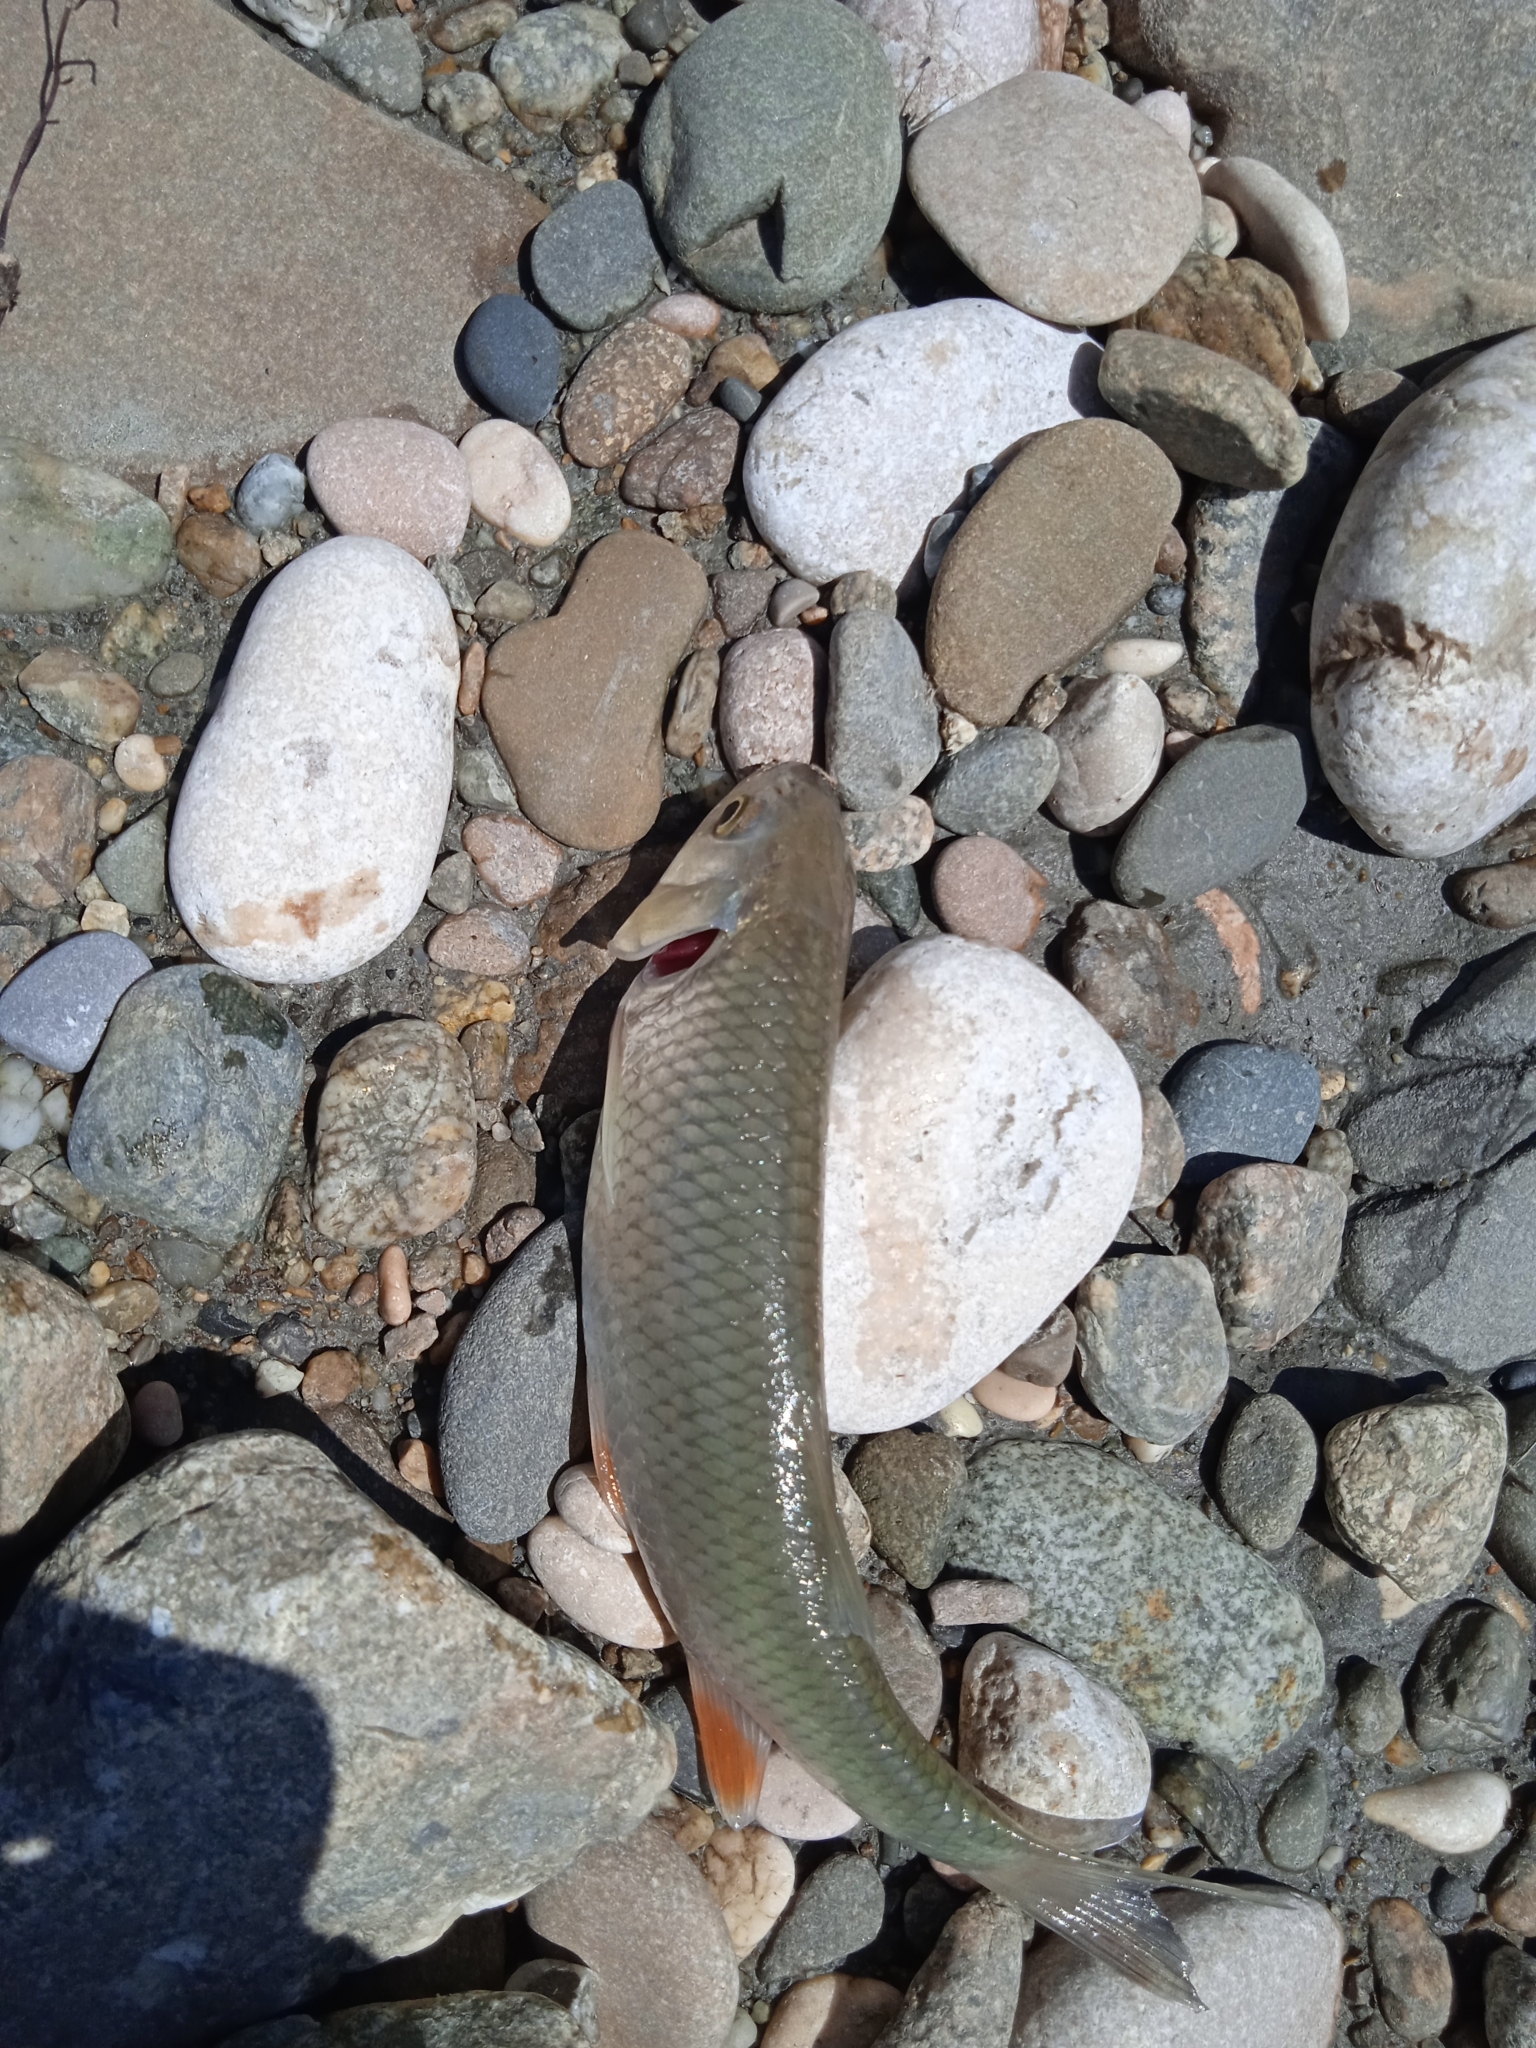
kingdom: Animalia
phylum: Chordata
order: Cypriniformes
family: Cyprinidae
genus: Squalius
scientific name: Squalius cephalus
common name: Chub
